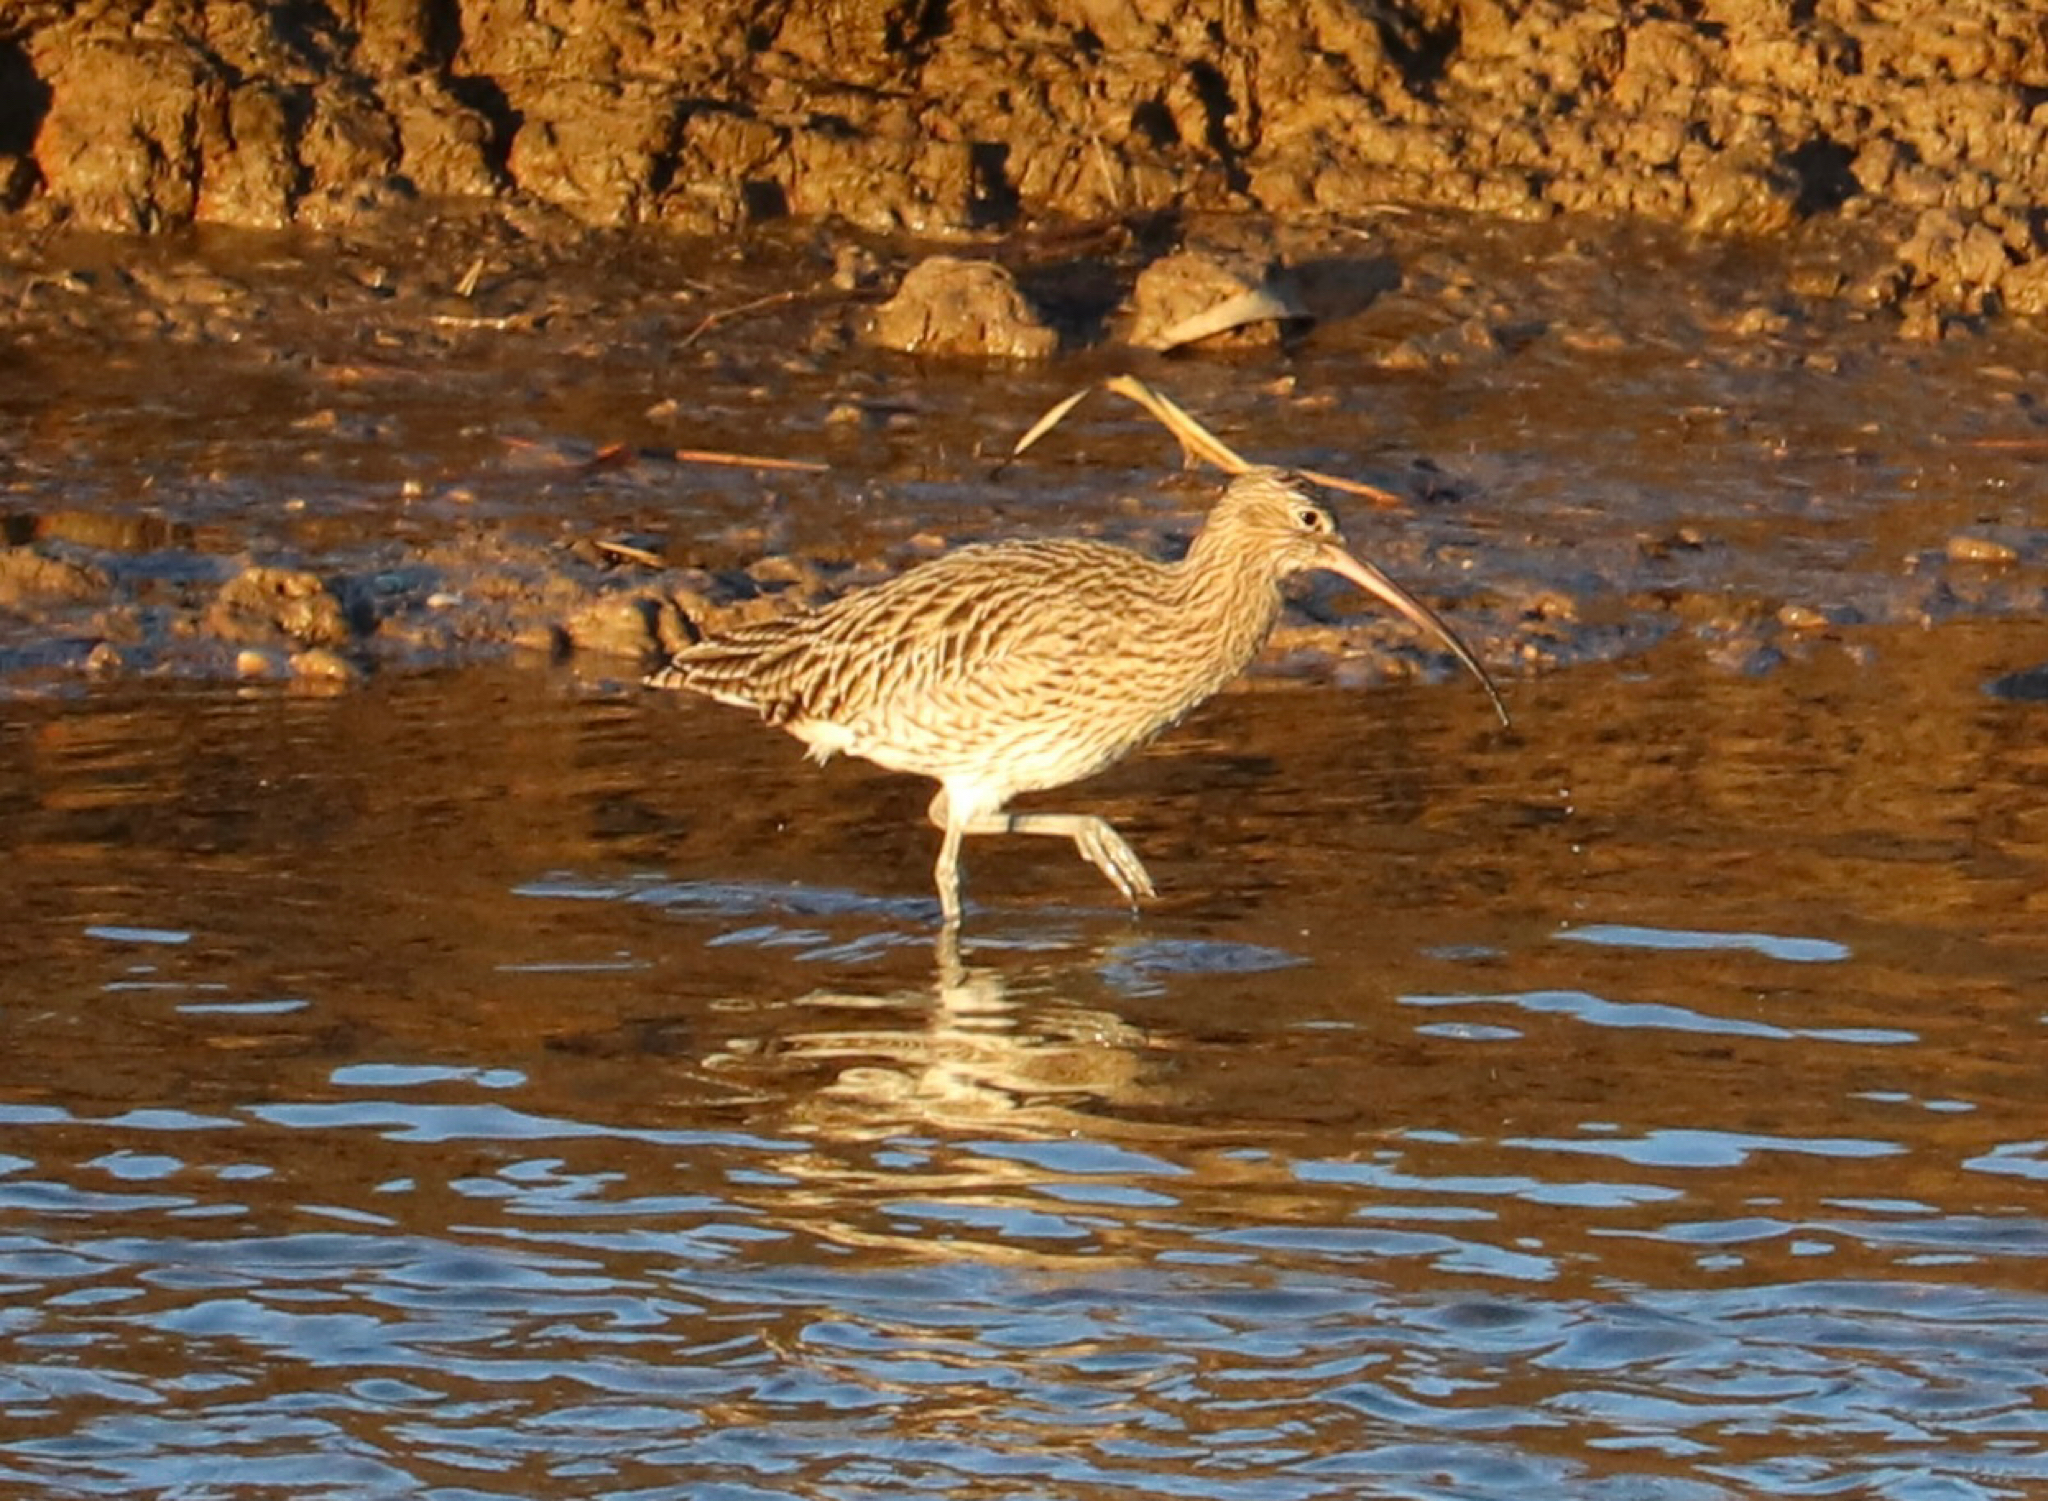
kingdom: Animalia
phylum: Chordata
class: Aves
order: Charadriiformes
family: Scolopacidae
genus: Numenius
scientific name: Numenius arquata
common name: Eurasian curlew
